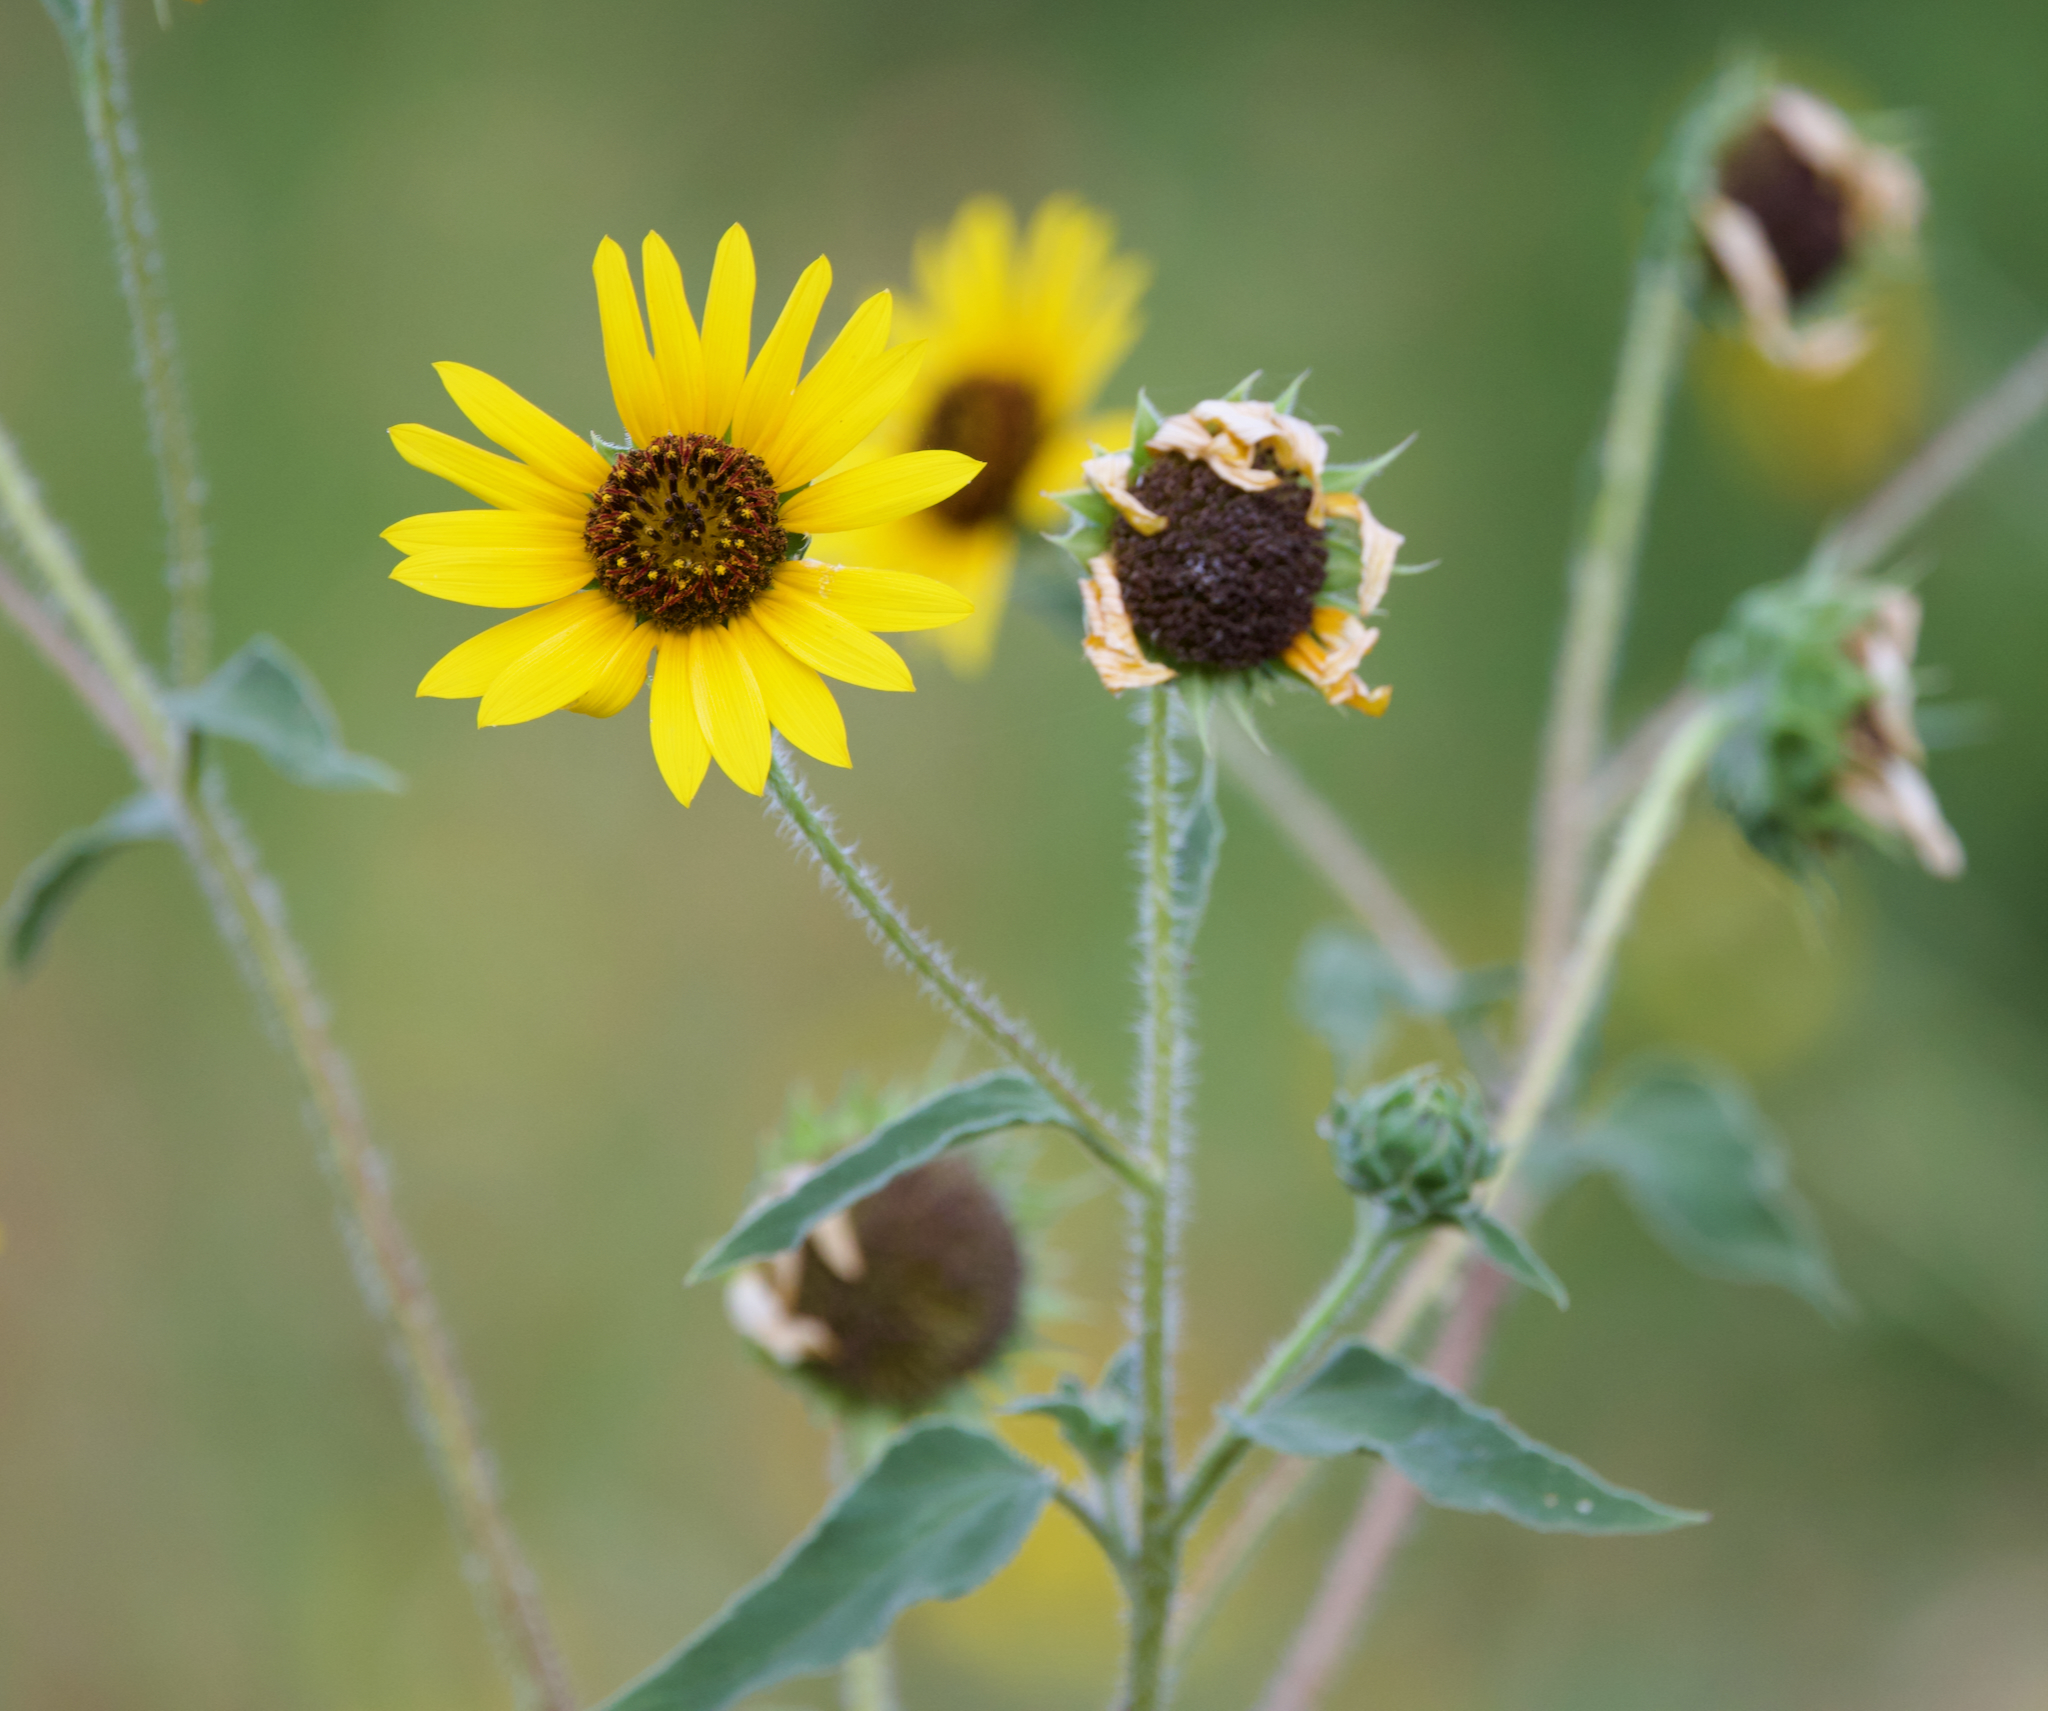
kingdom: Plantae
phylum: Tracheophyta
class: Magnoliopsida
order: Asterales
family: Asteraceae
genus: Helianthus
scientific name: Helianthus annuus
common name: Sunflower
